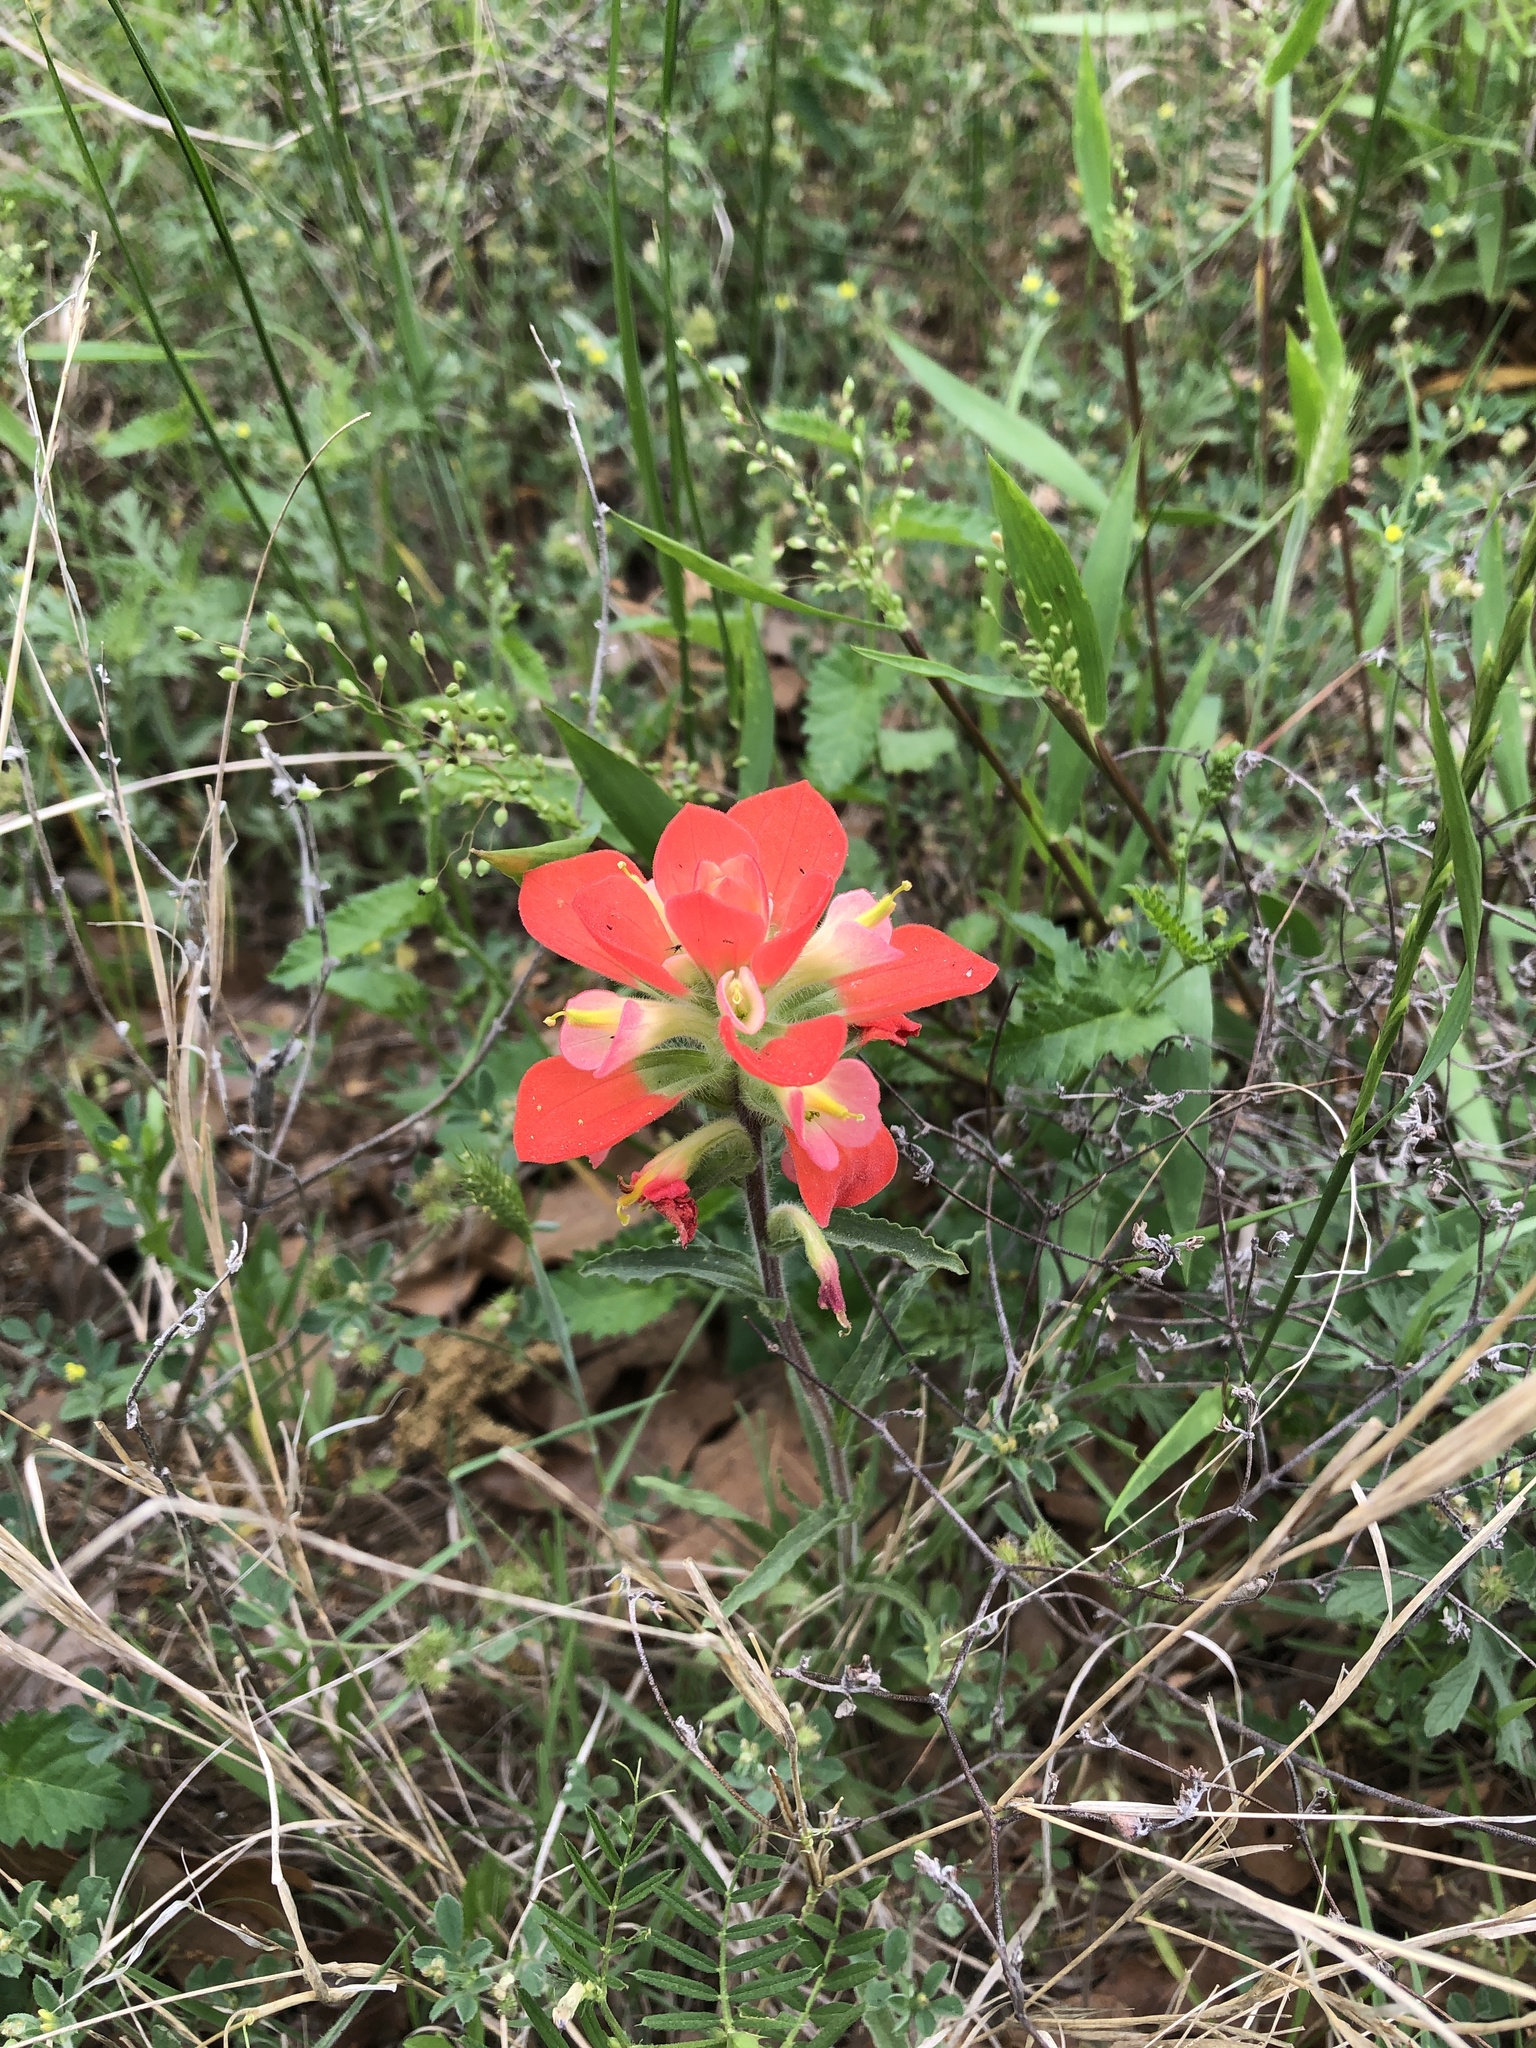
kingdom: Plantae
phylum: Tracheophyta
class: Magnoliopsida
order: Lamiales
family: Orobanchaceae
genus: Castilleja
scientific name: Castilleja indivisa
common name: Texas paintbrush
